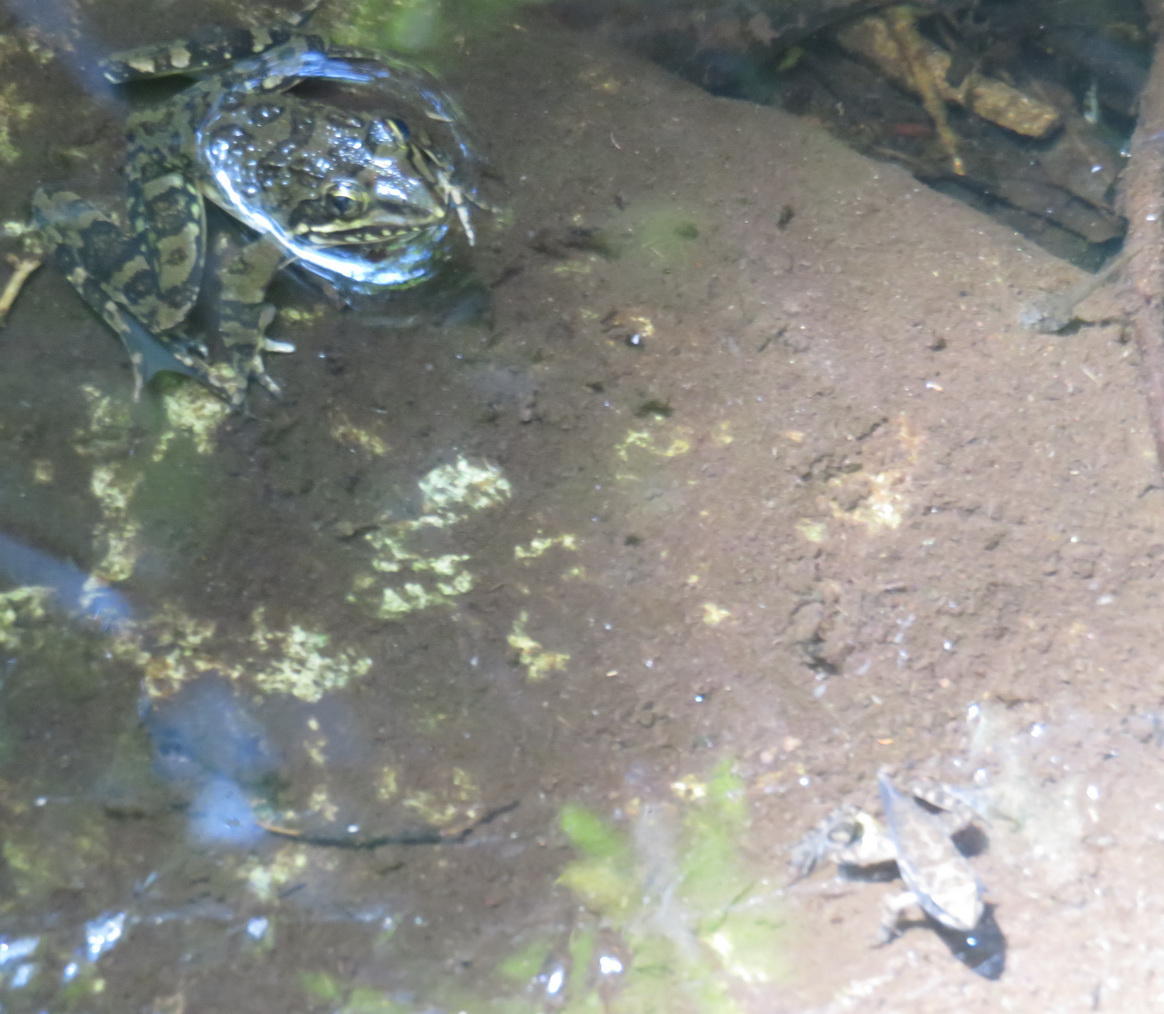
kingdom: Animalia
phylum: Chordata
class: Amphibia
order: Anura
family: Pyxicephalidae
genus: Amietia
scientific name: Amietia fuscigula
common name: Cape rana
